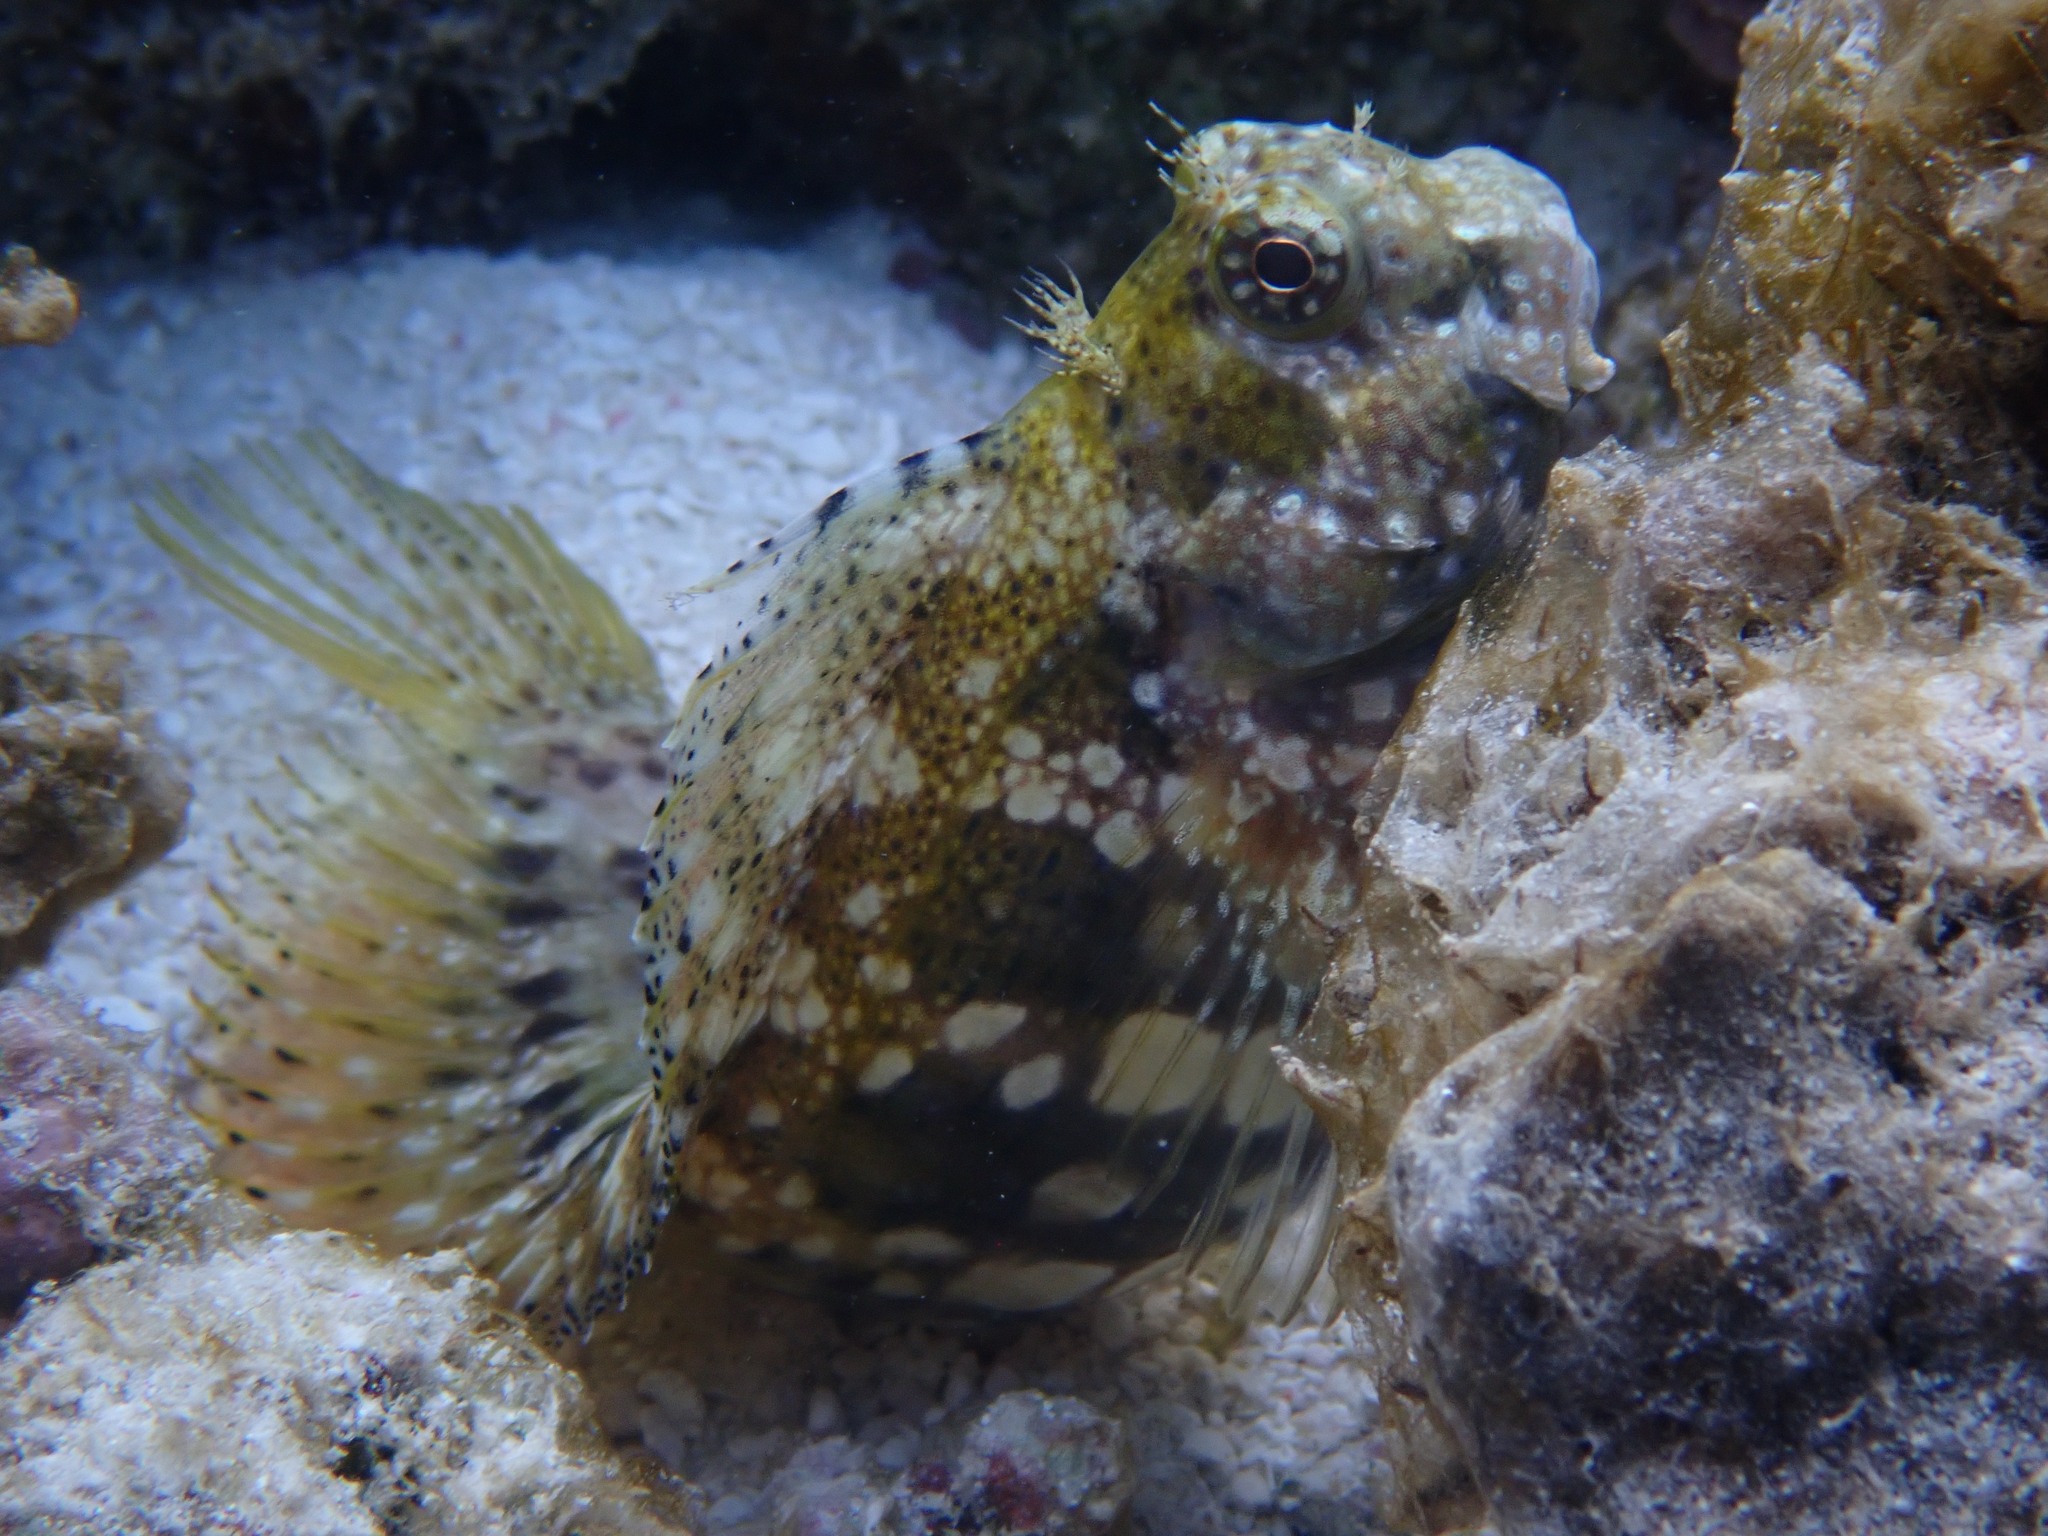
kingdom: Animalia
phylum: Chordata
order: Perciformes
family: Blenniidae
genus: Salarias
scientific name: Salarias fasciatus
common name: Jewelled blenny
